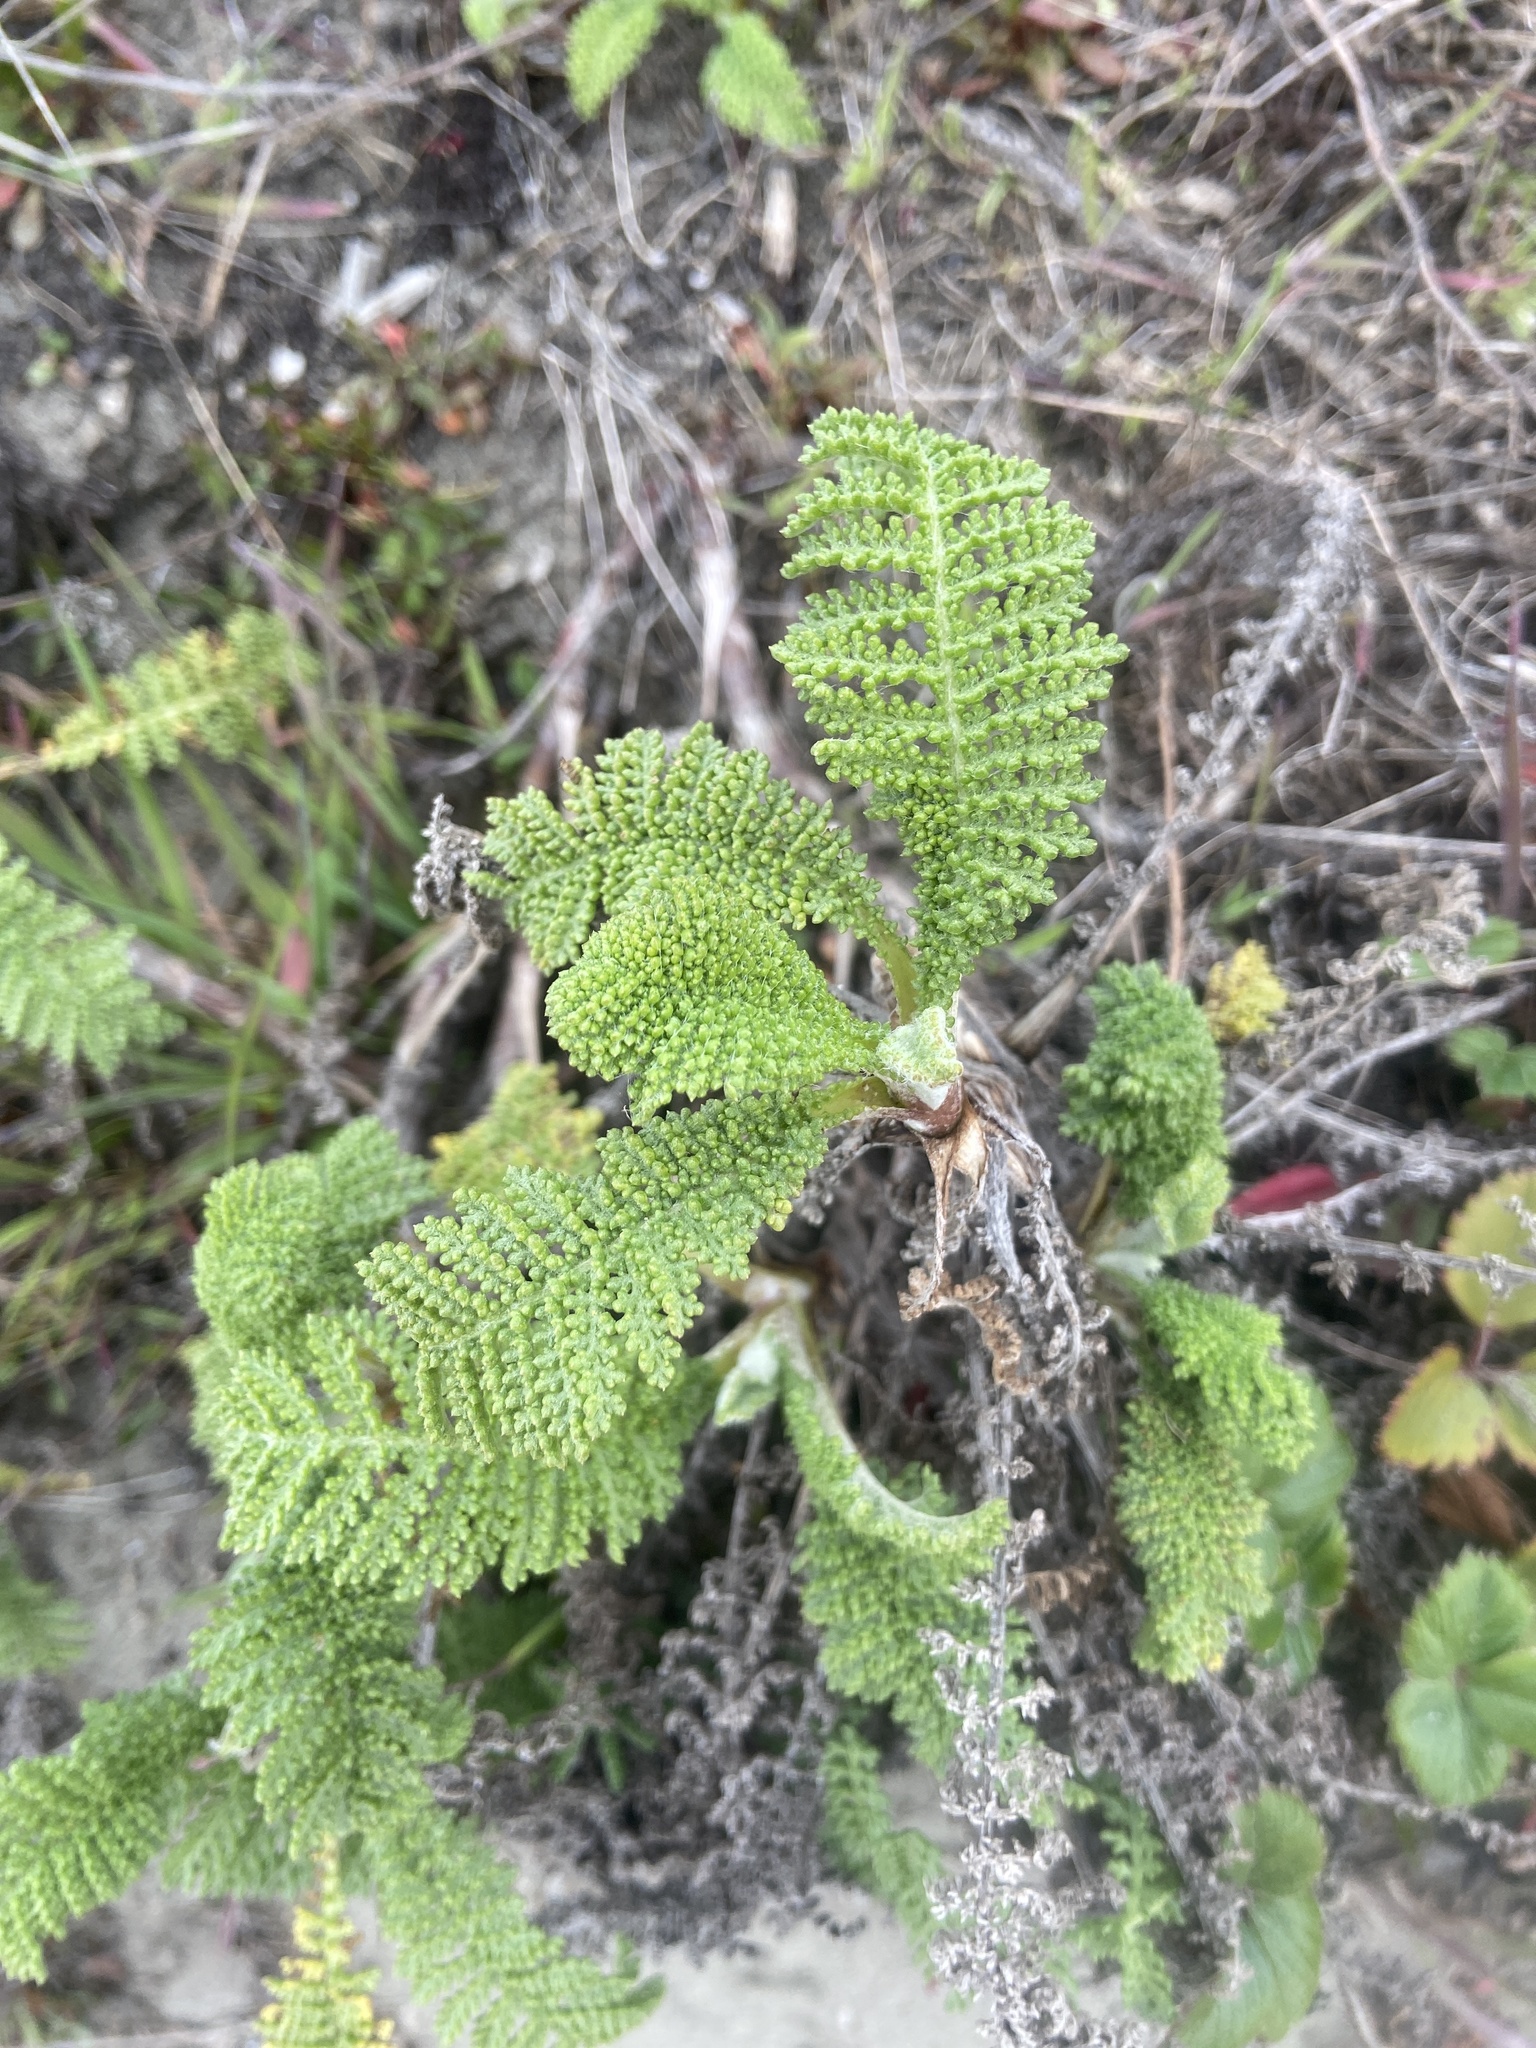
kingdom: Plantae
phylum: Tracheophyta
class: Magnoliopsida
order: Asterales
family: Asteraceae
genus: Tanacetum
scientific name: Tanacetum bipinnatum
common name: Dwarf tansy
